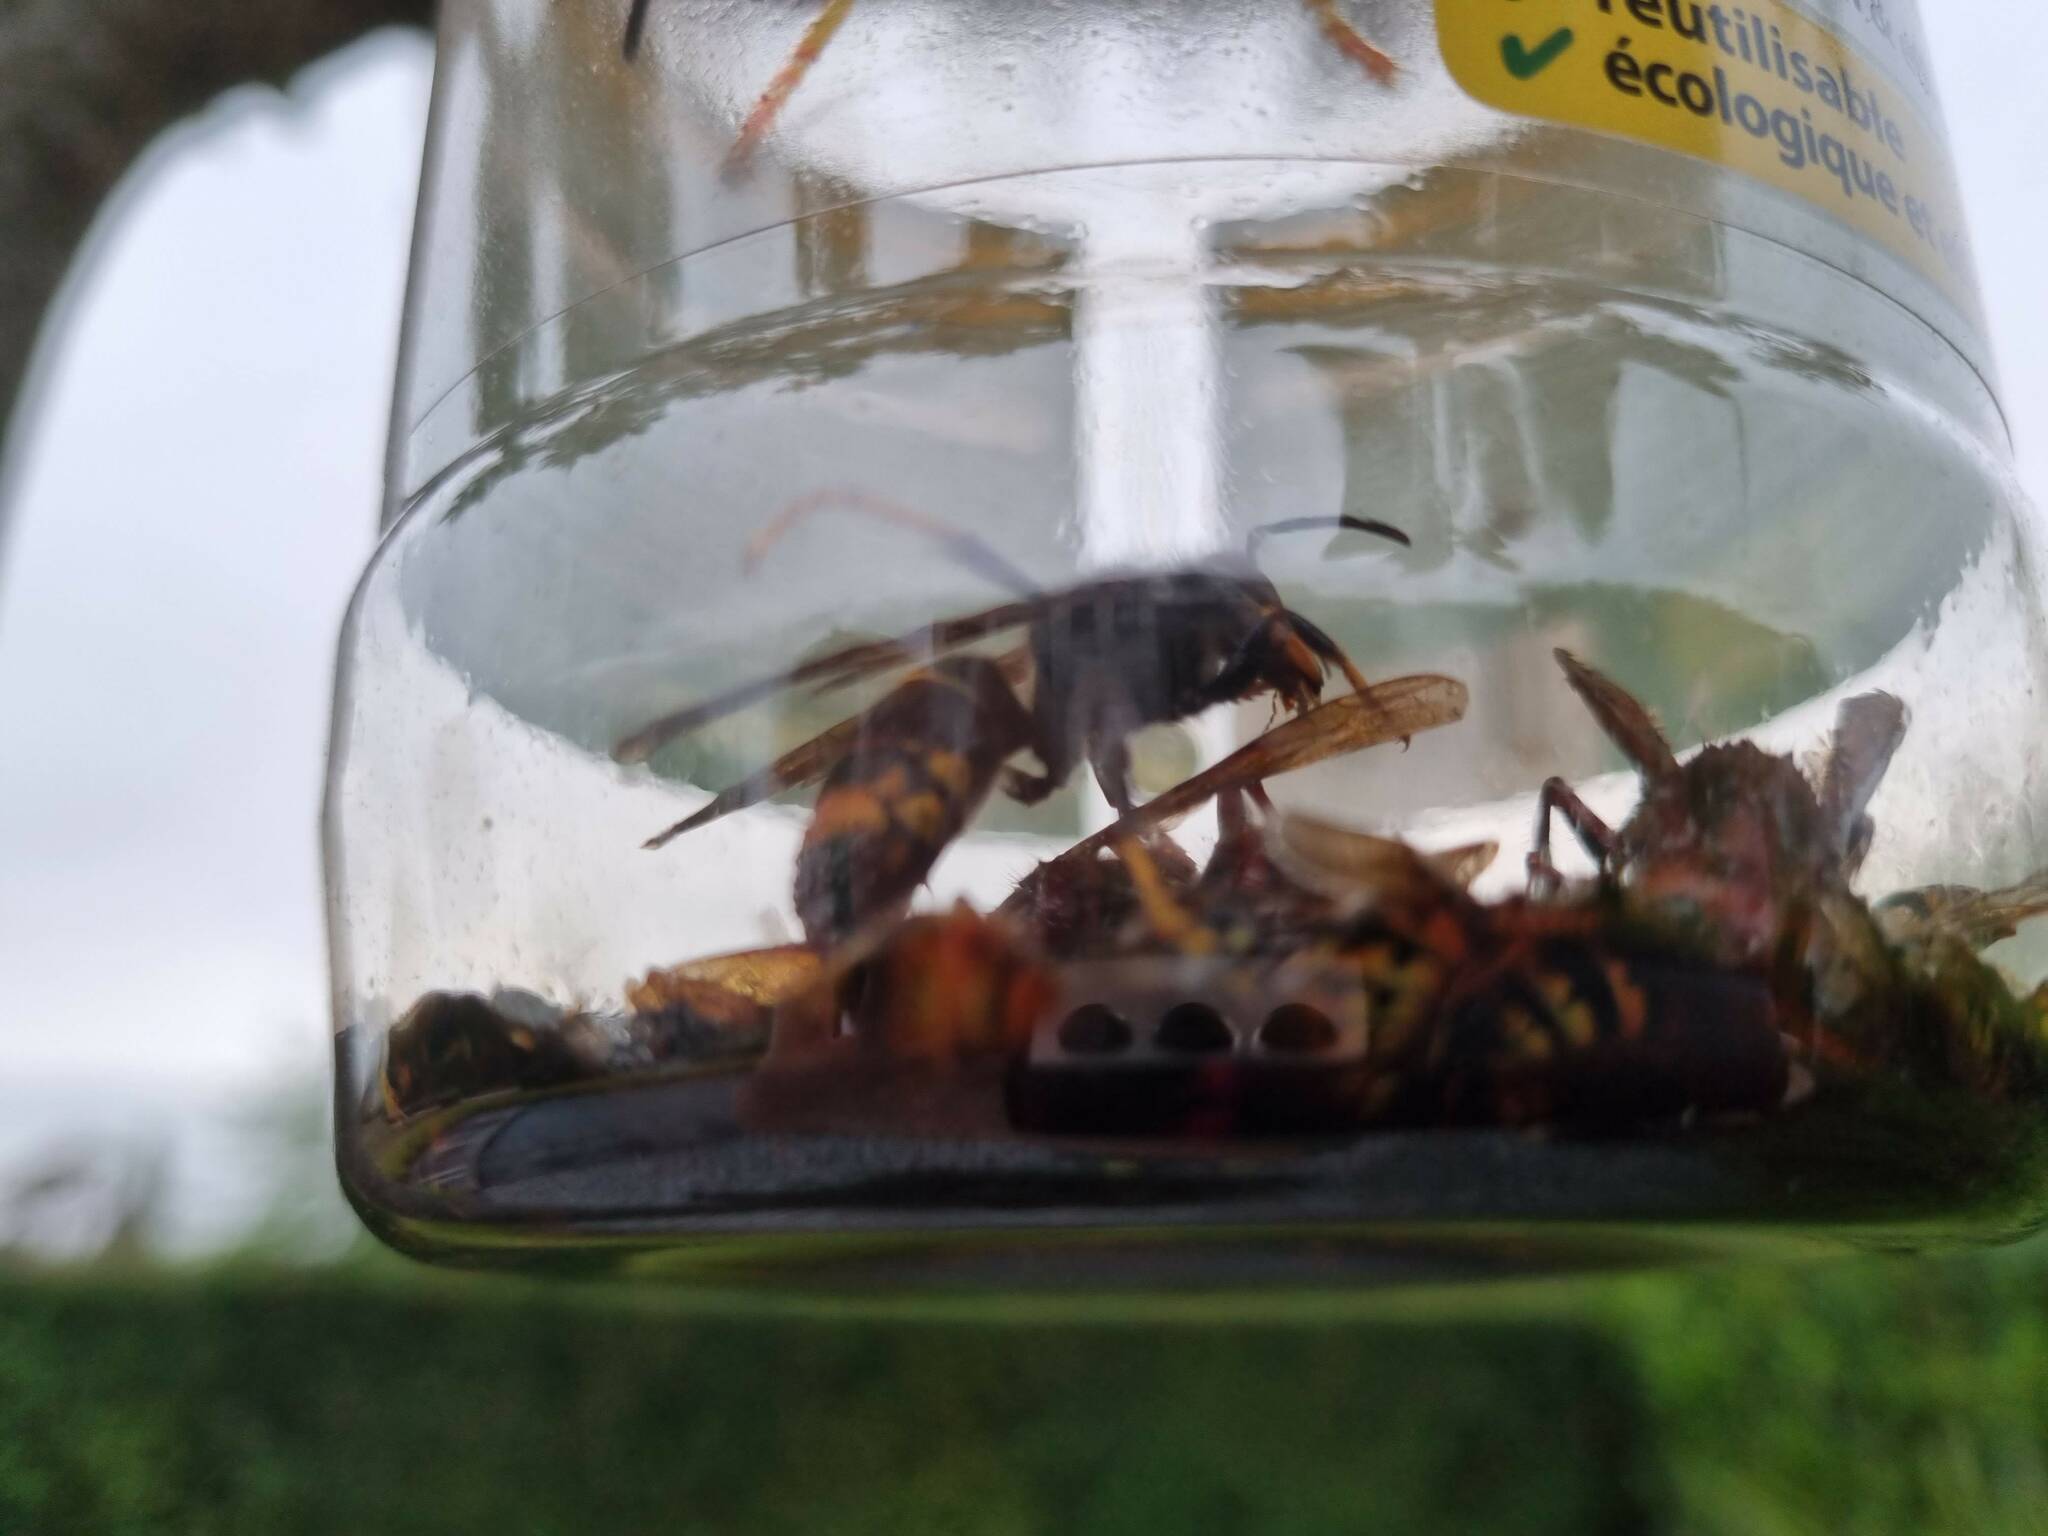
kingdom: Animalia
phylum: Arthropoda
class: Insecta
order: Hymenoptera
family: Vespidae
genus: Vespa
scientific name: Vespa velutina
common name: Asian hornet
